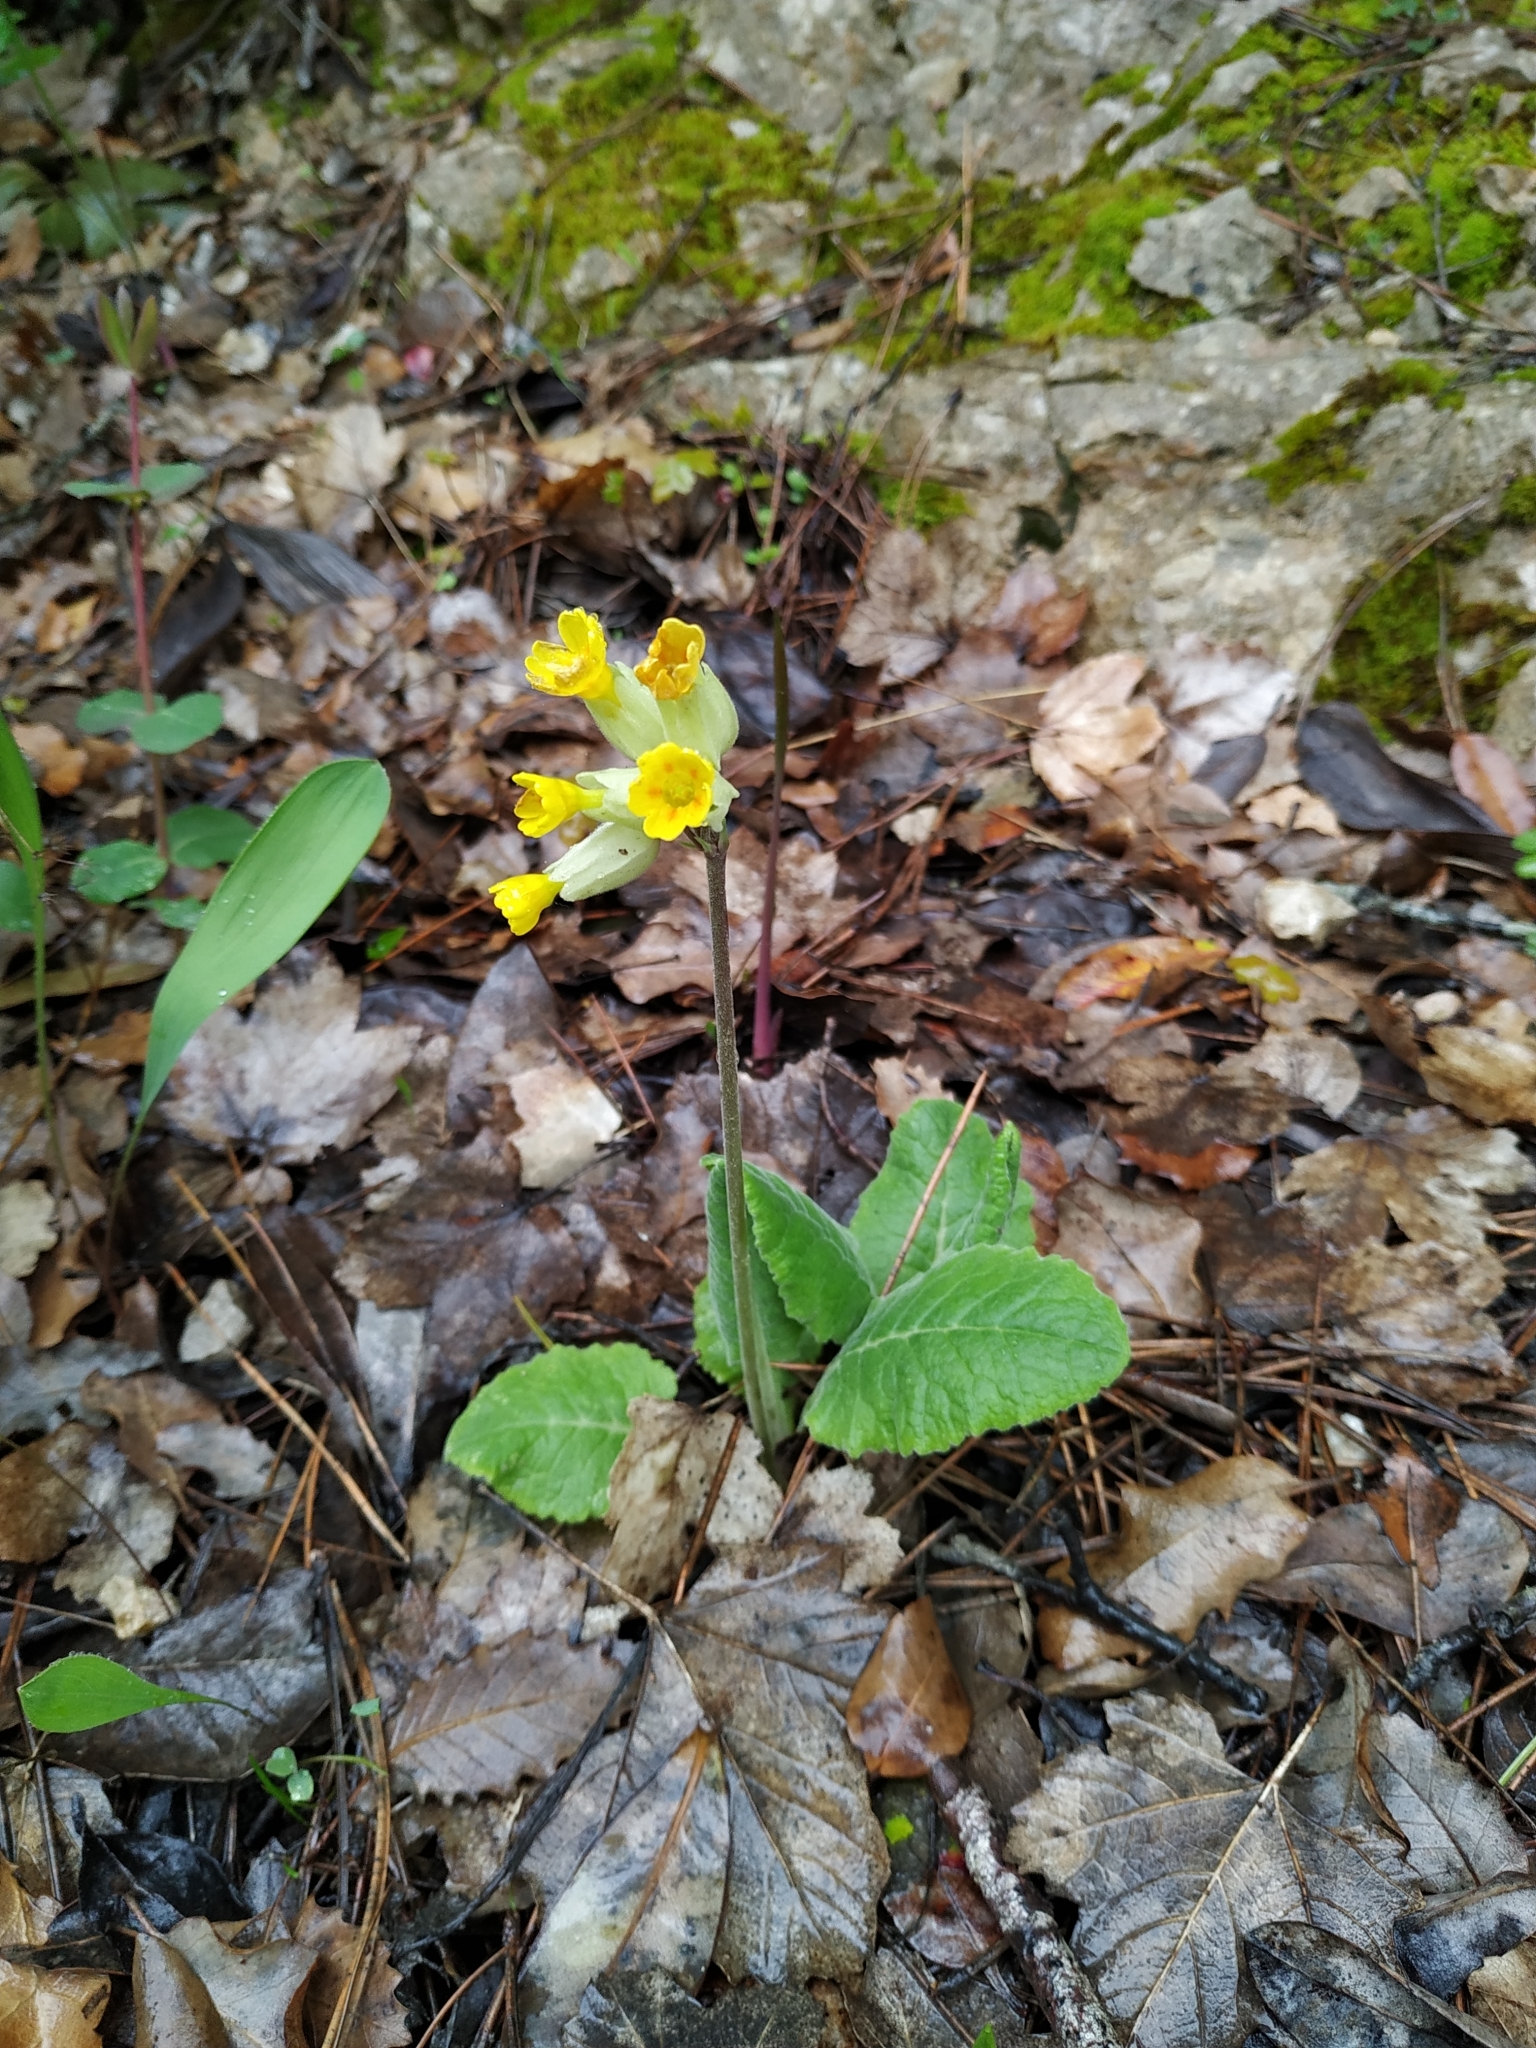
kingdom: Plantae
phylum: Tracheophyta
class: Magnoliopsida
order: Ericales
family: Primulaceae
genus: Primula
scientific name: Primula veris
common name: Cowslip
